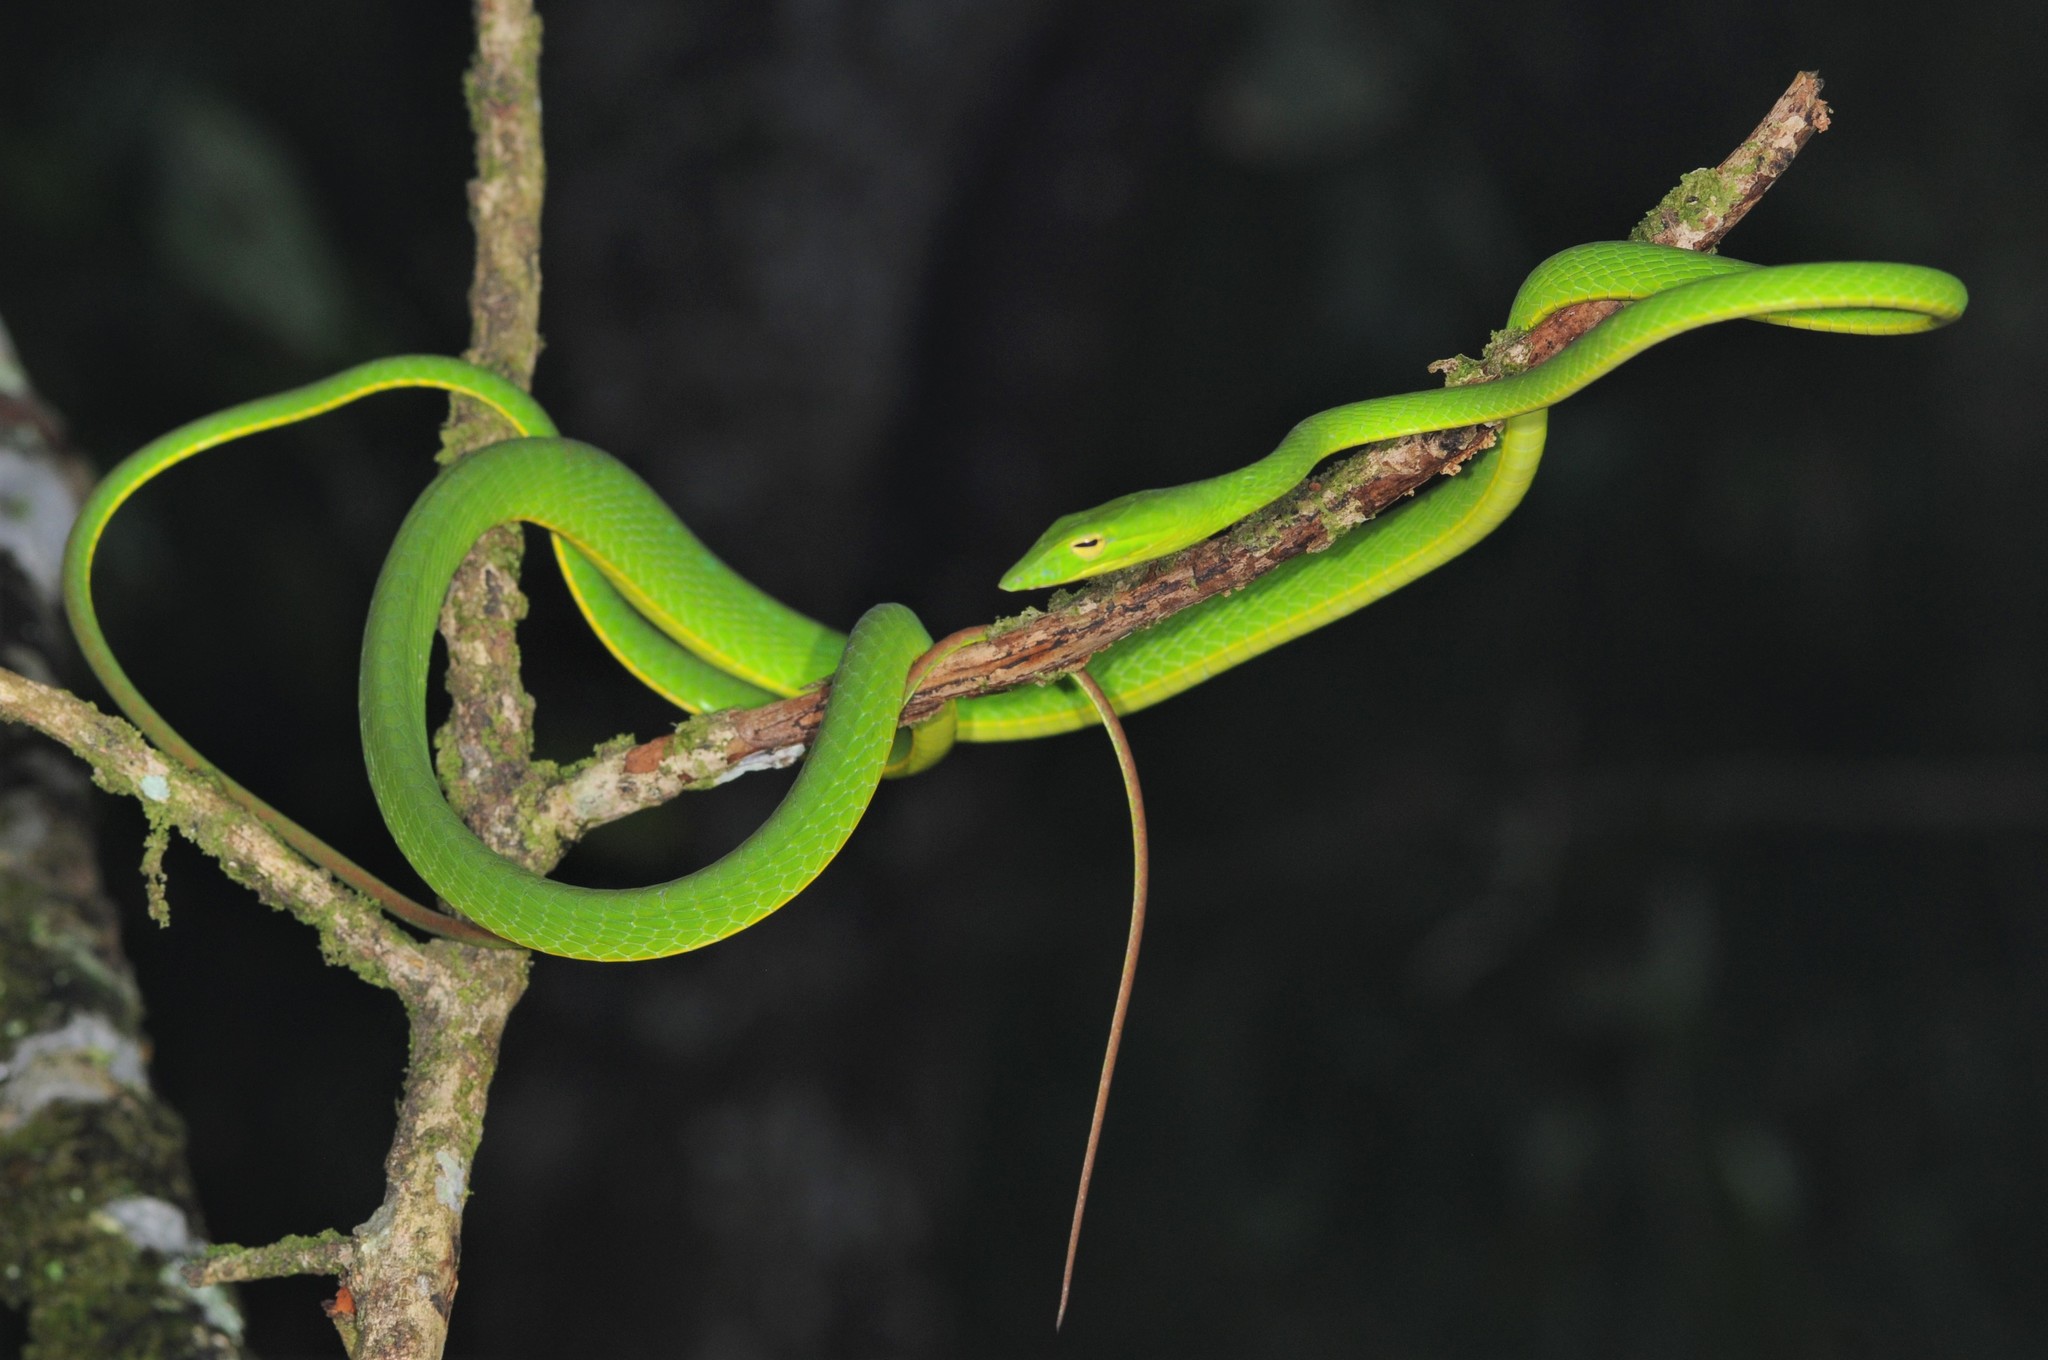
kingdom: Animalia
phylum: Chordata
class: Squamata
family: Colubridae
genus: Ahaetulla
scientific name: Ahaetulla prasina
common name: Oriental whip snake
